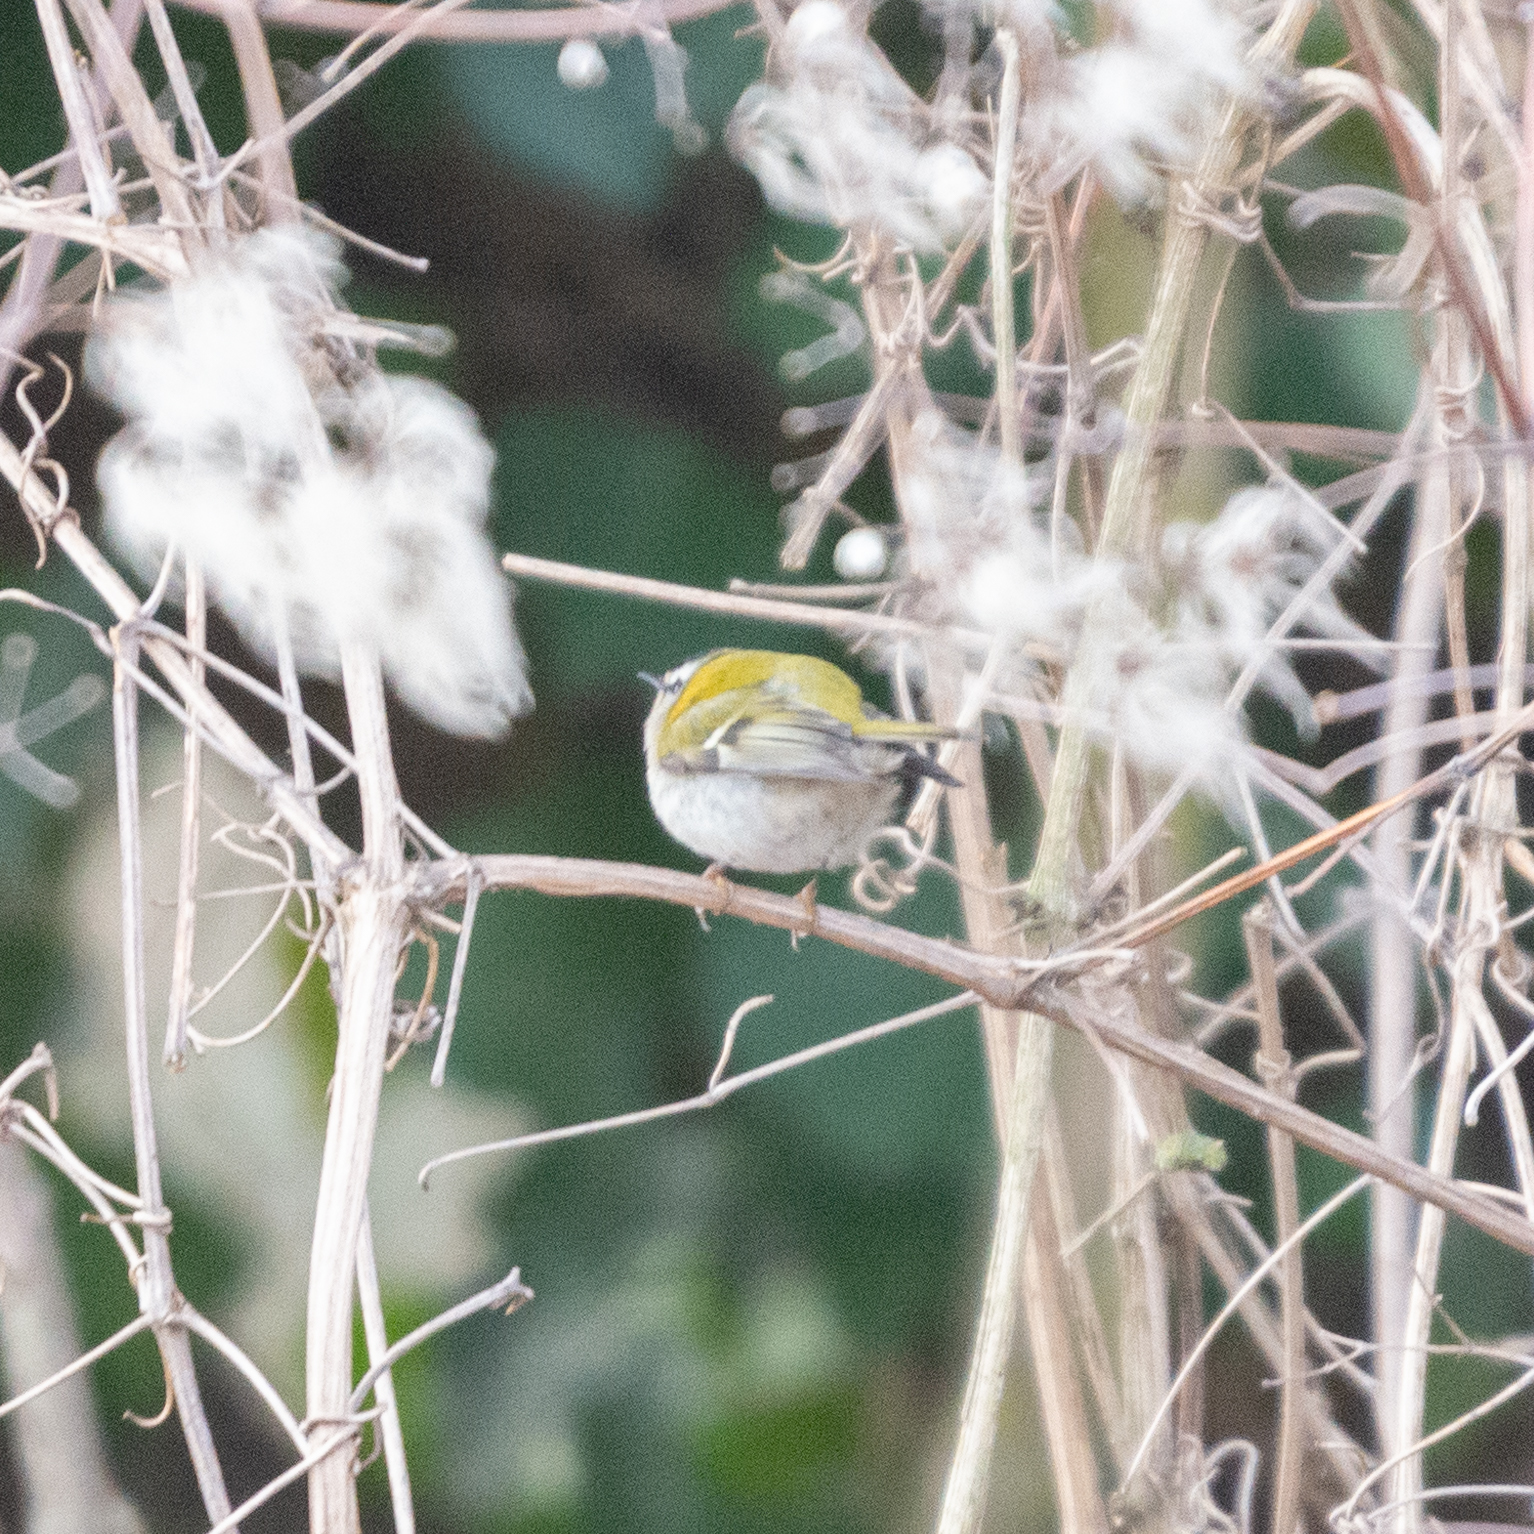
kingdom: Animalia
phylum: Chordata
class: Aves
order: Passeriformes
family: Regulidae
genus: Regulus
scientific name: Regulus ignicapilla
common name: Firecrest
